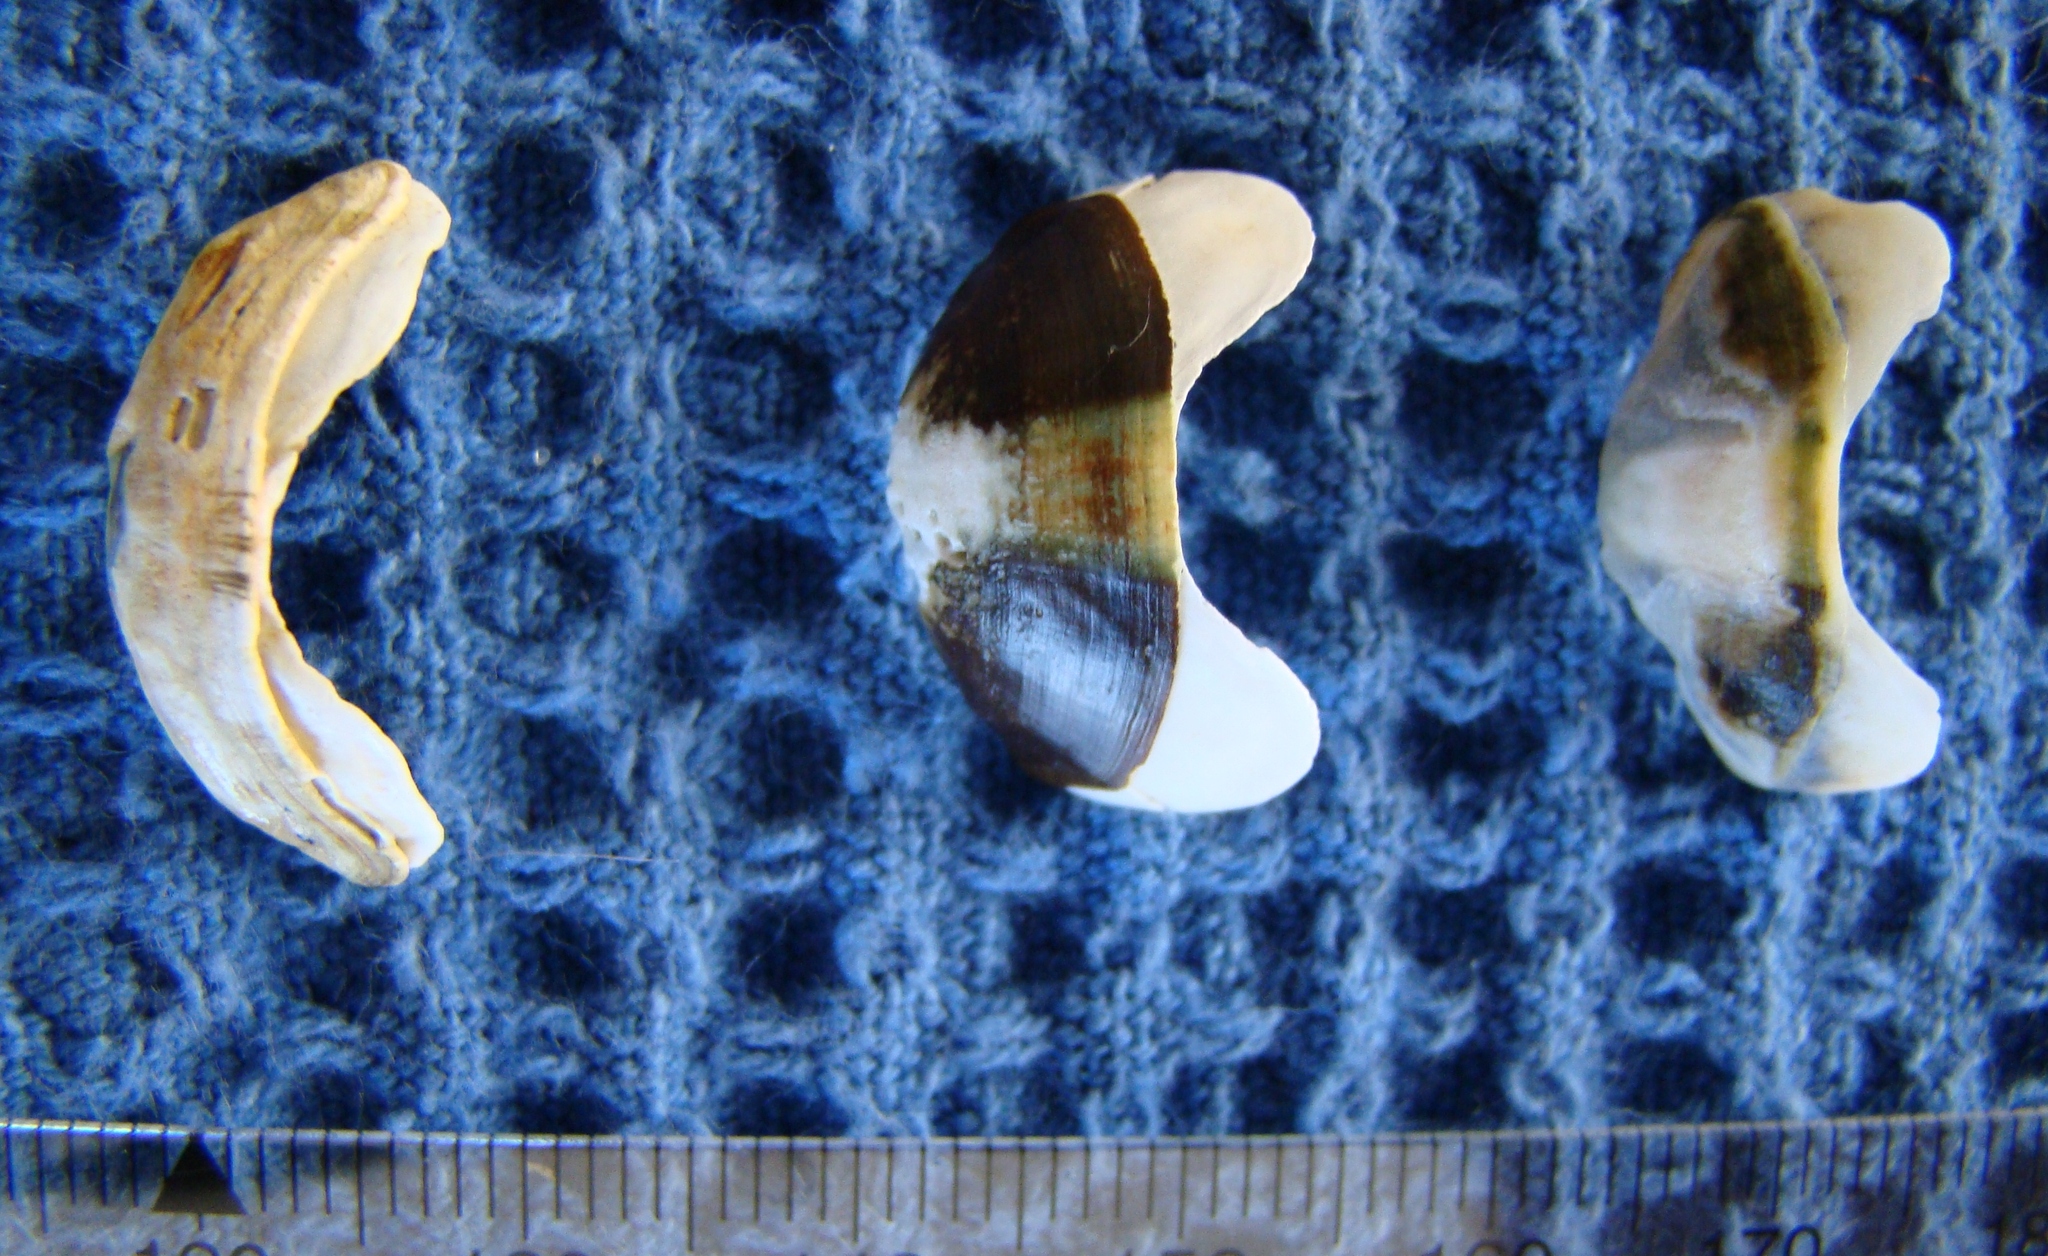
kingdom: Animalia
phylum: Mollusca
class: Polyplacophora
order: Chitonida
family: Chitonidae
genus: Sypharochiton
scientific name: Sypharochiton pelliserpentis
